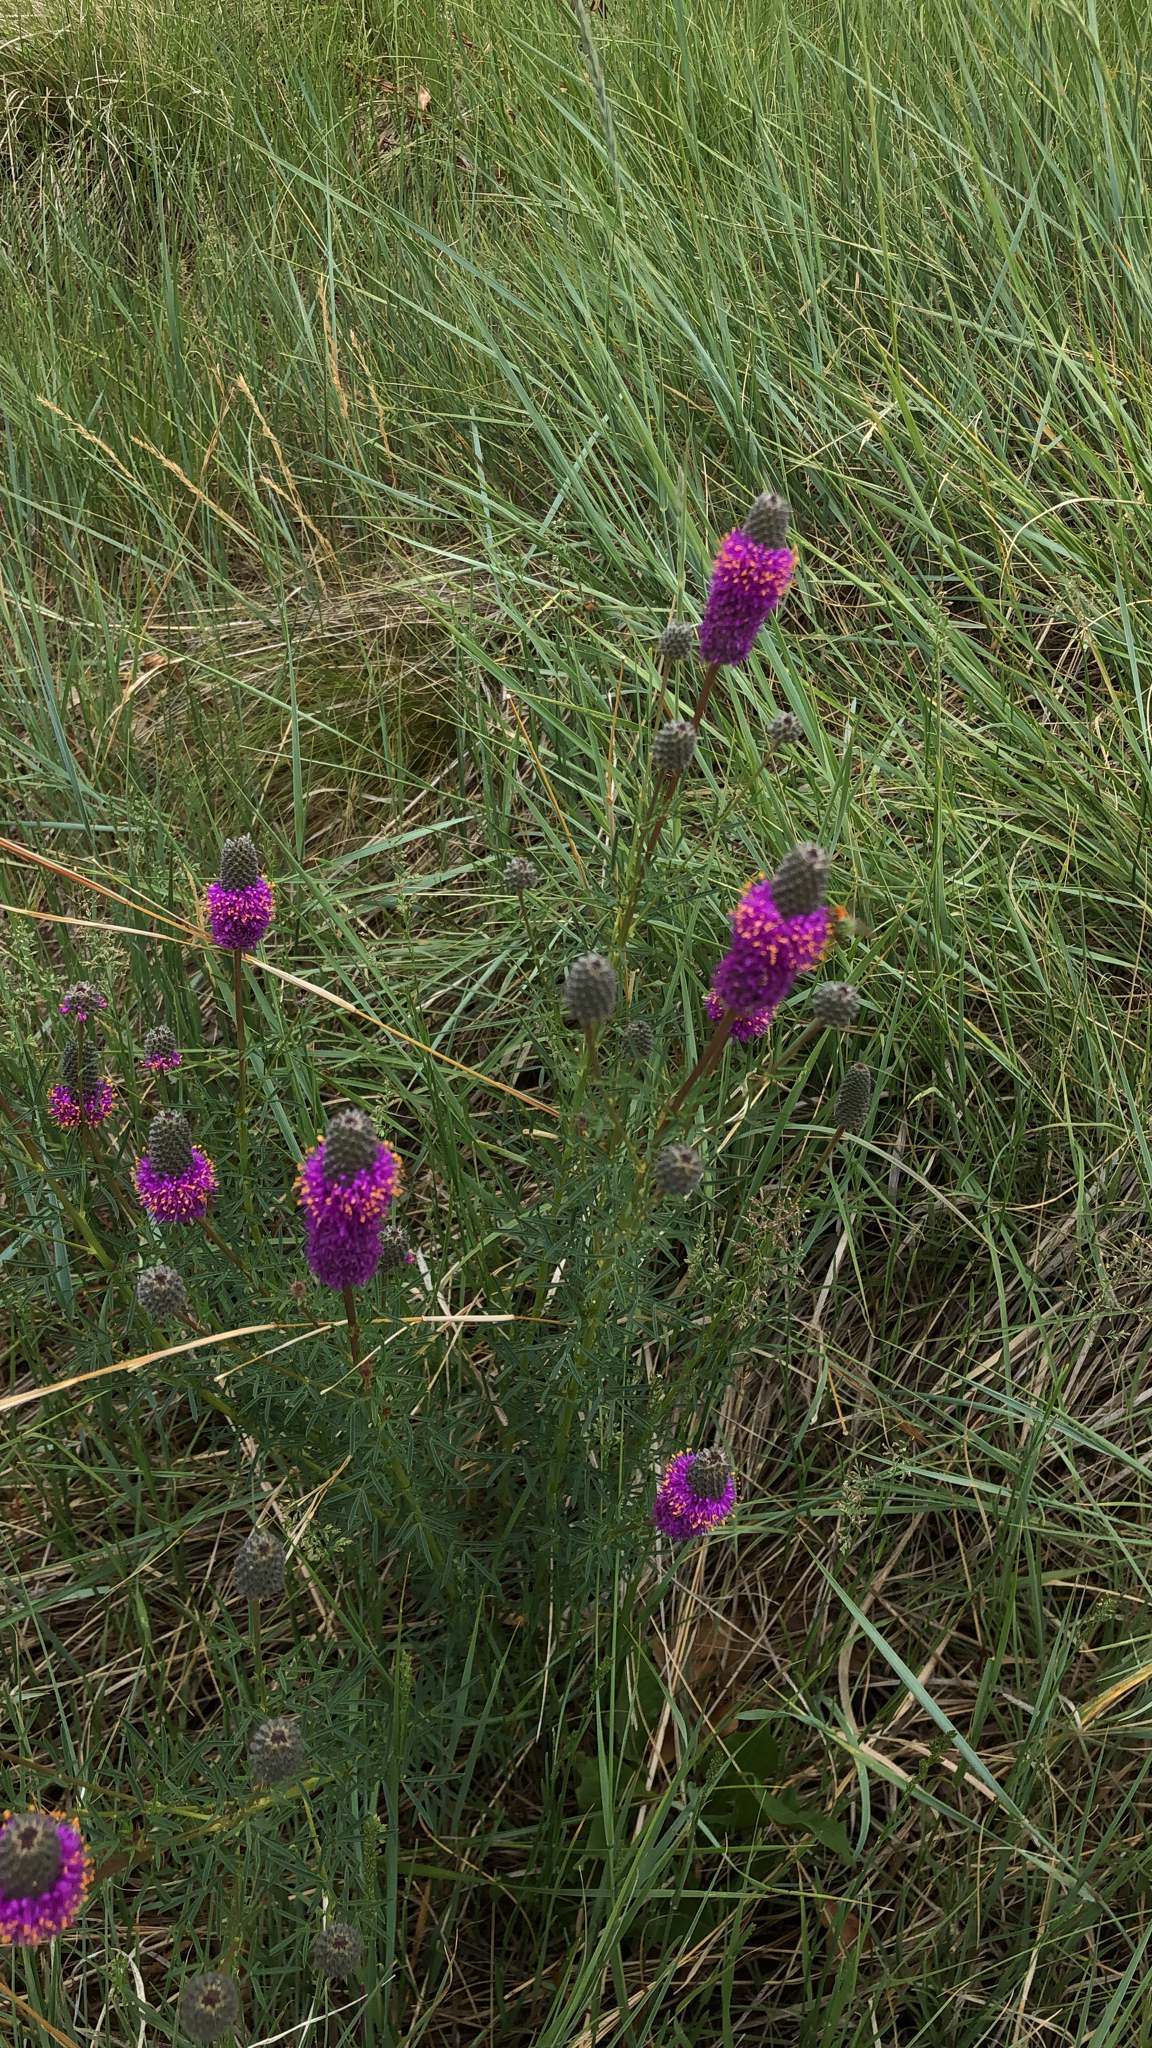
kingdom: Plantae
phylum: Tracheophyta
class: Magnoliopsida
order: Fabales
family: Fabaceae
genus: Dalea
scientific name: Dalea purpurea
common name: Purple prairie-clover
